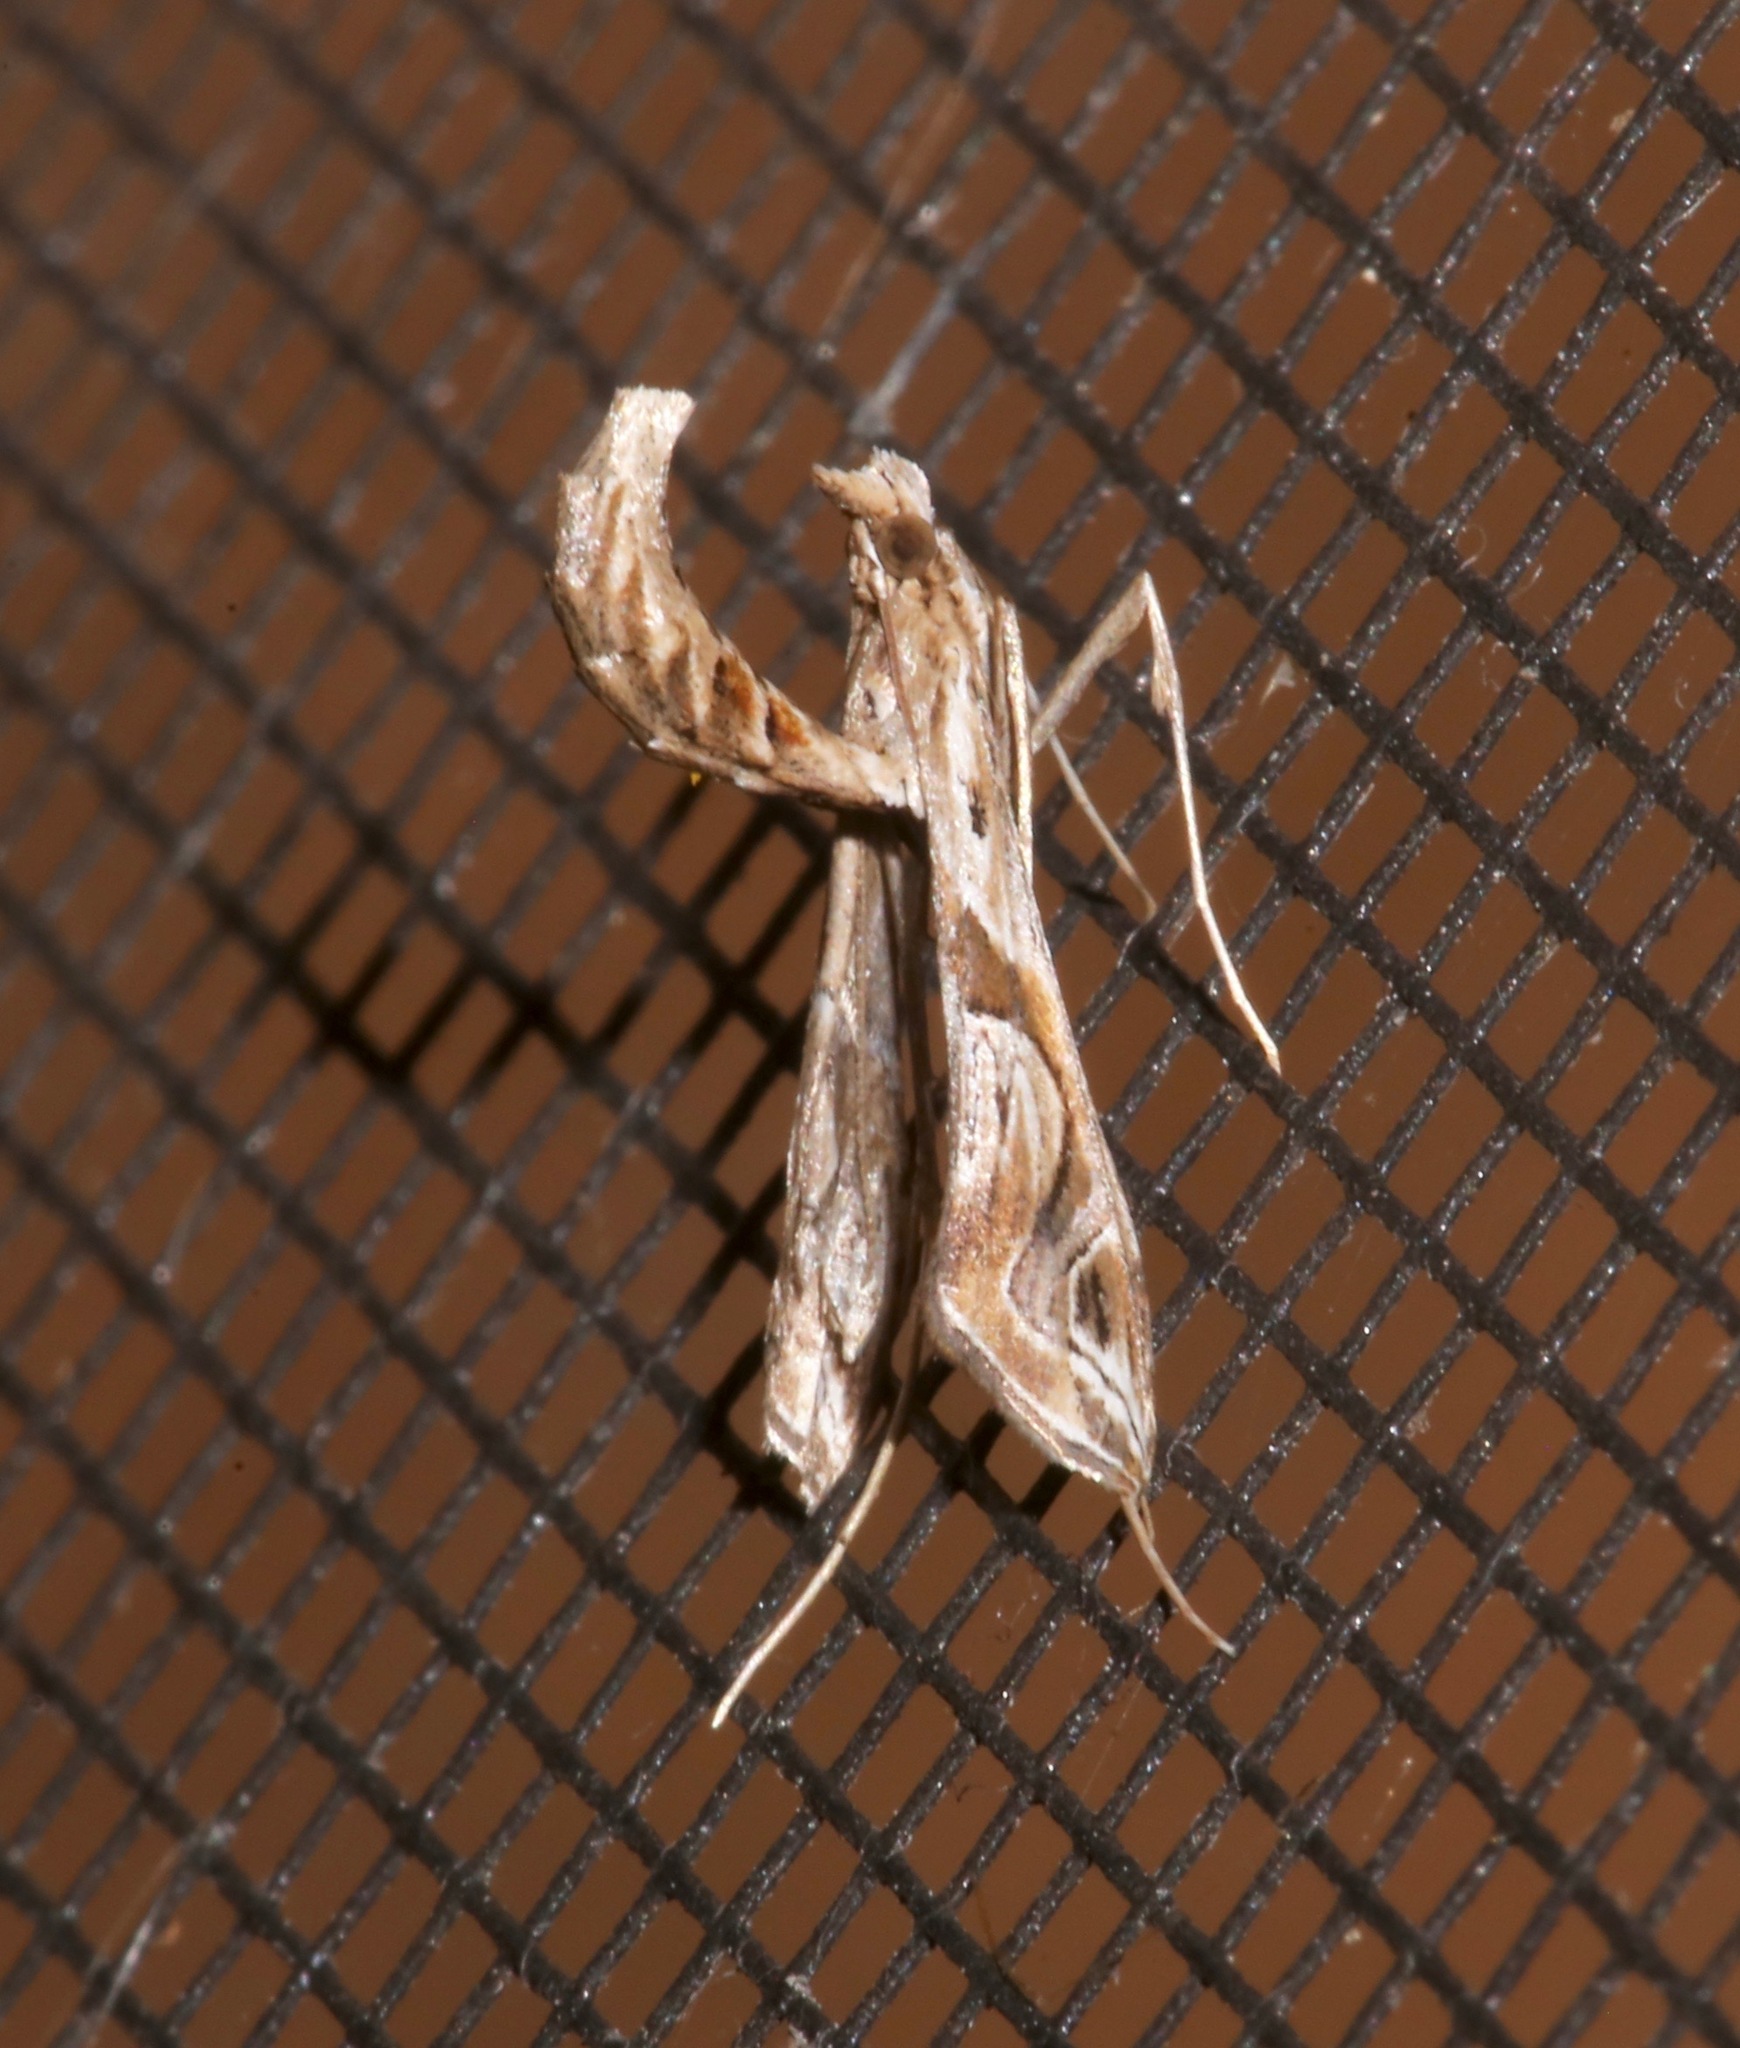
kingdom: Animalia
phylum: Arthropoda
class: Insecta
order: Lepidoptera
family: Crambidae
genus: Lineodes
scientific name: Lineodes integra
